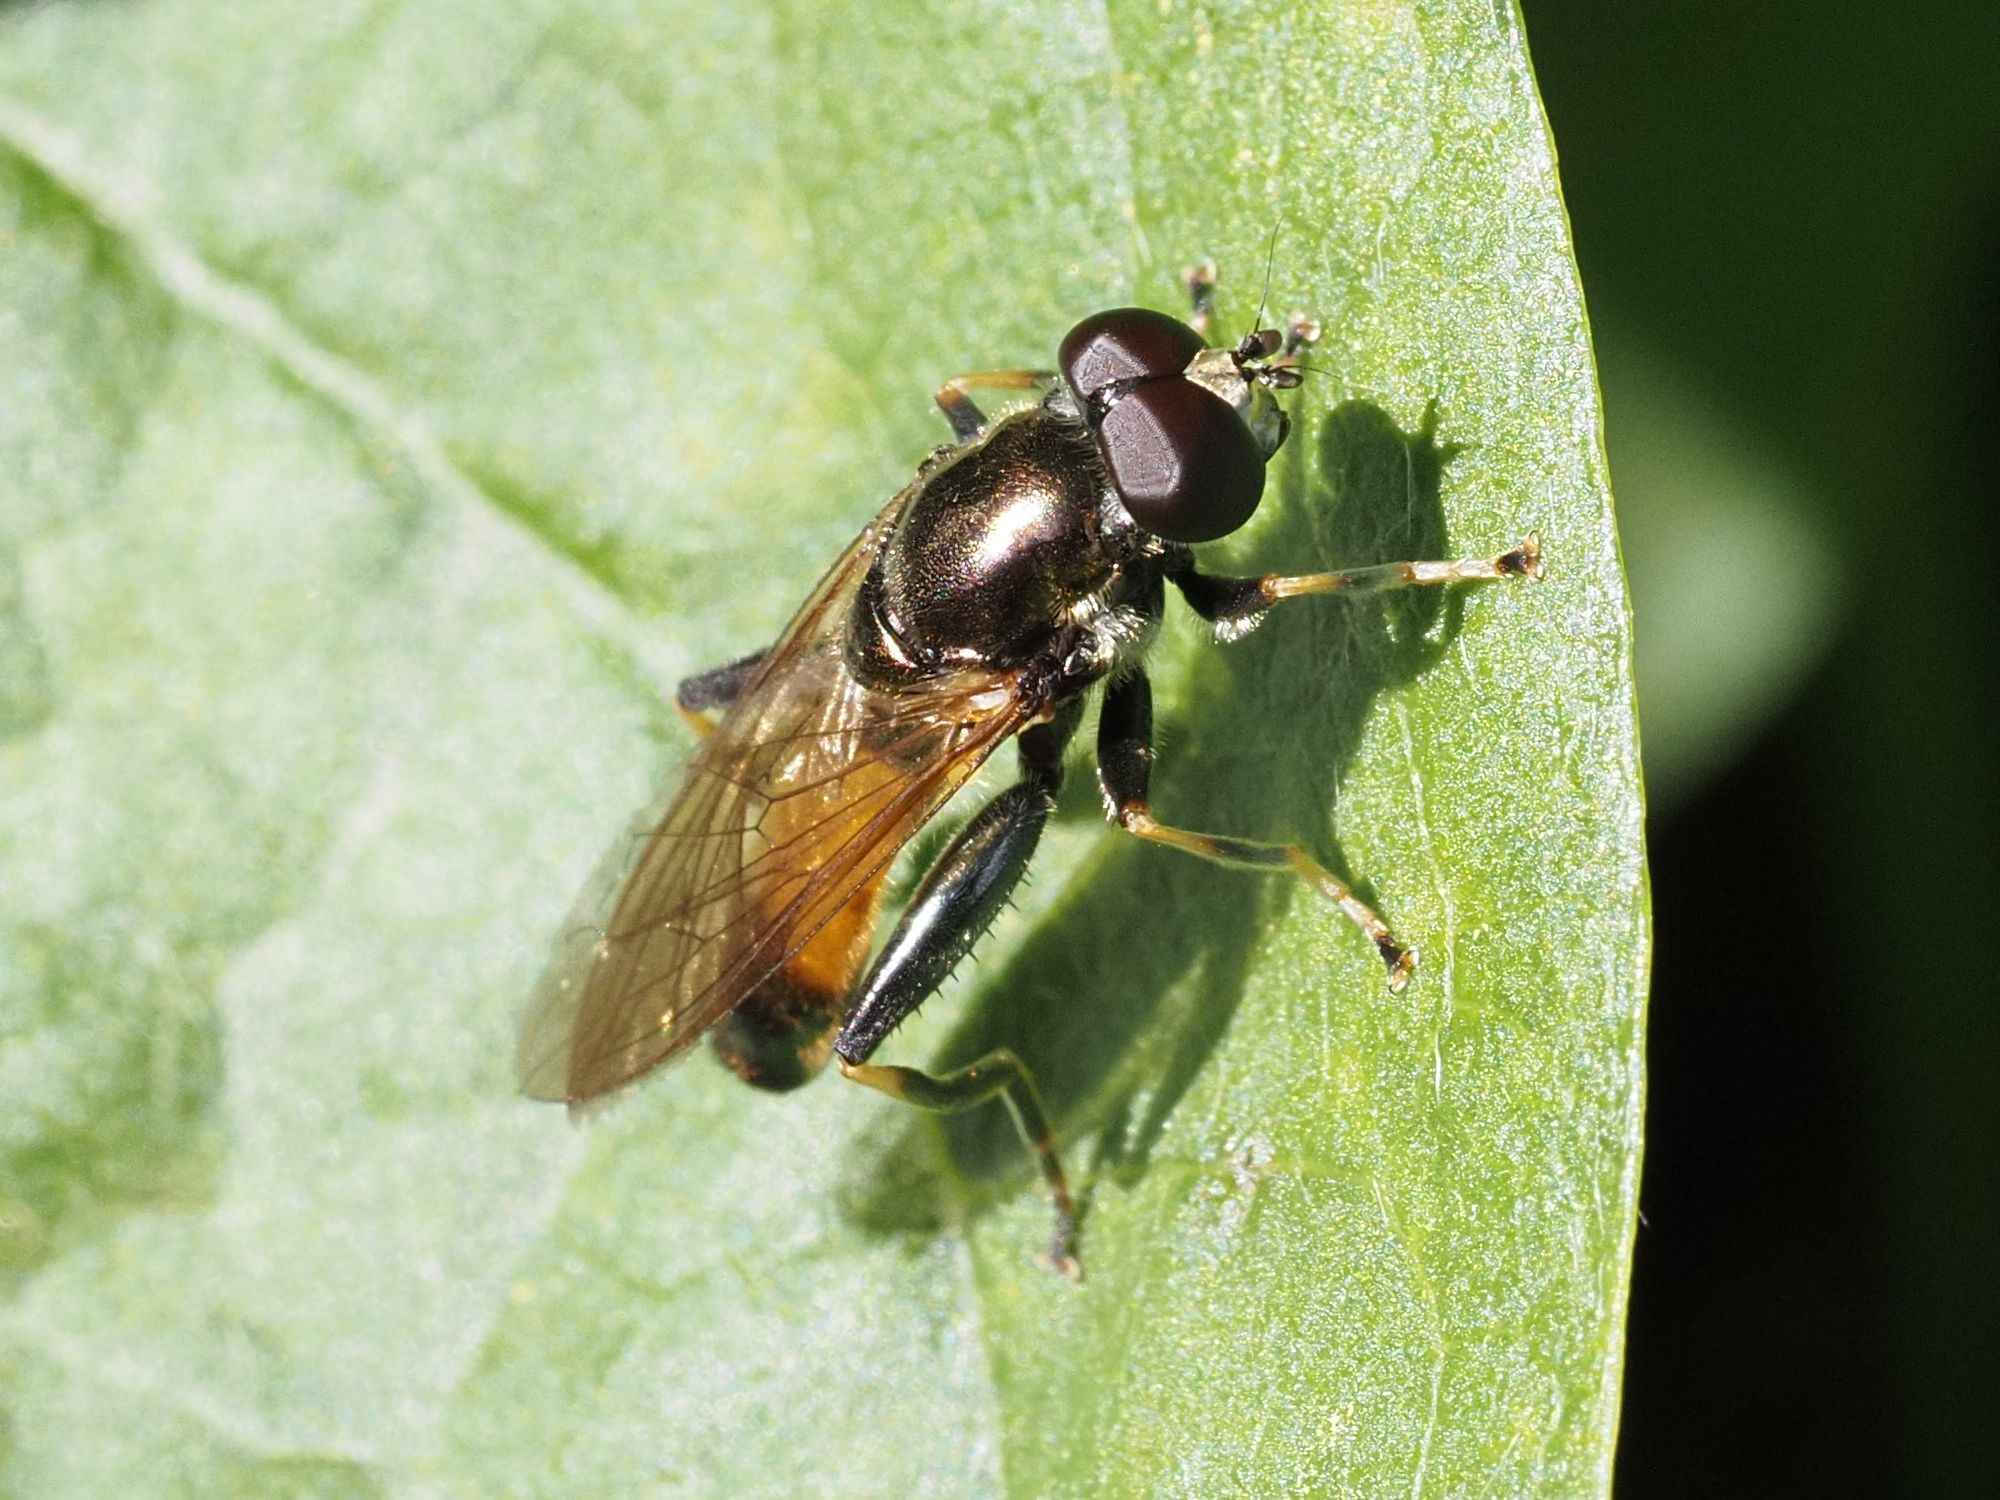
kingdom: Animalia
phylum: Arthropoda
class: Insecta
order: Diptera
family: Syrphidae
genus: Xylota
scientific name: Xylota segnis
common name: Brown-toed forest fly
